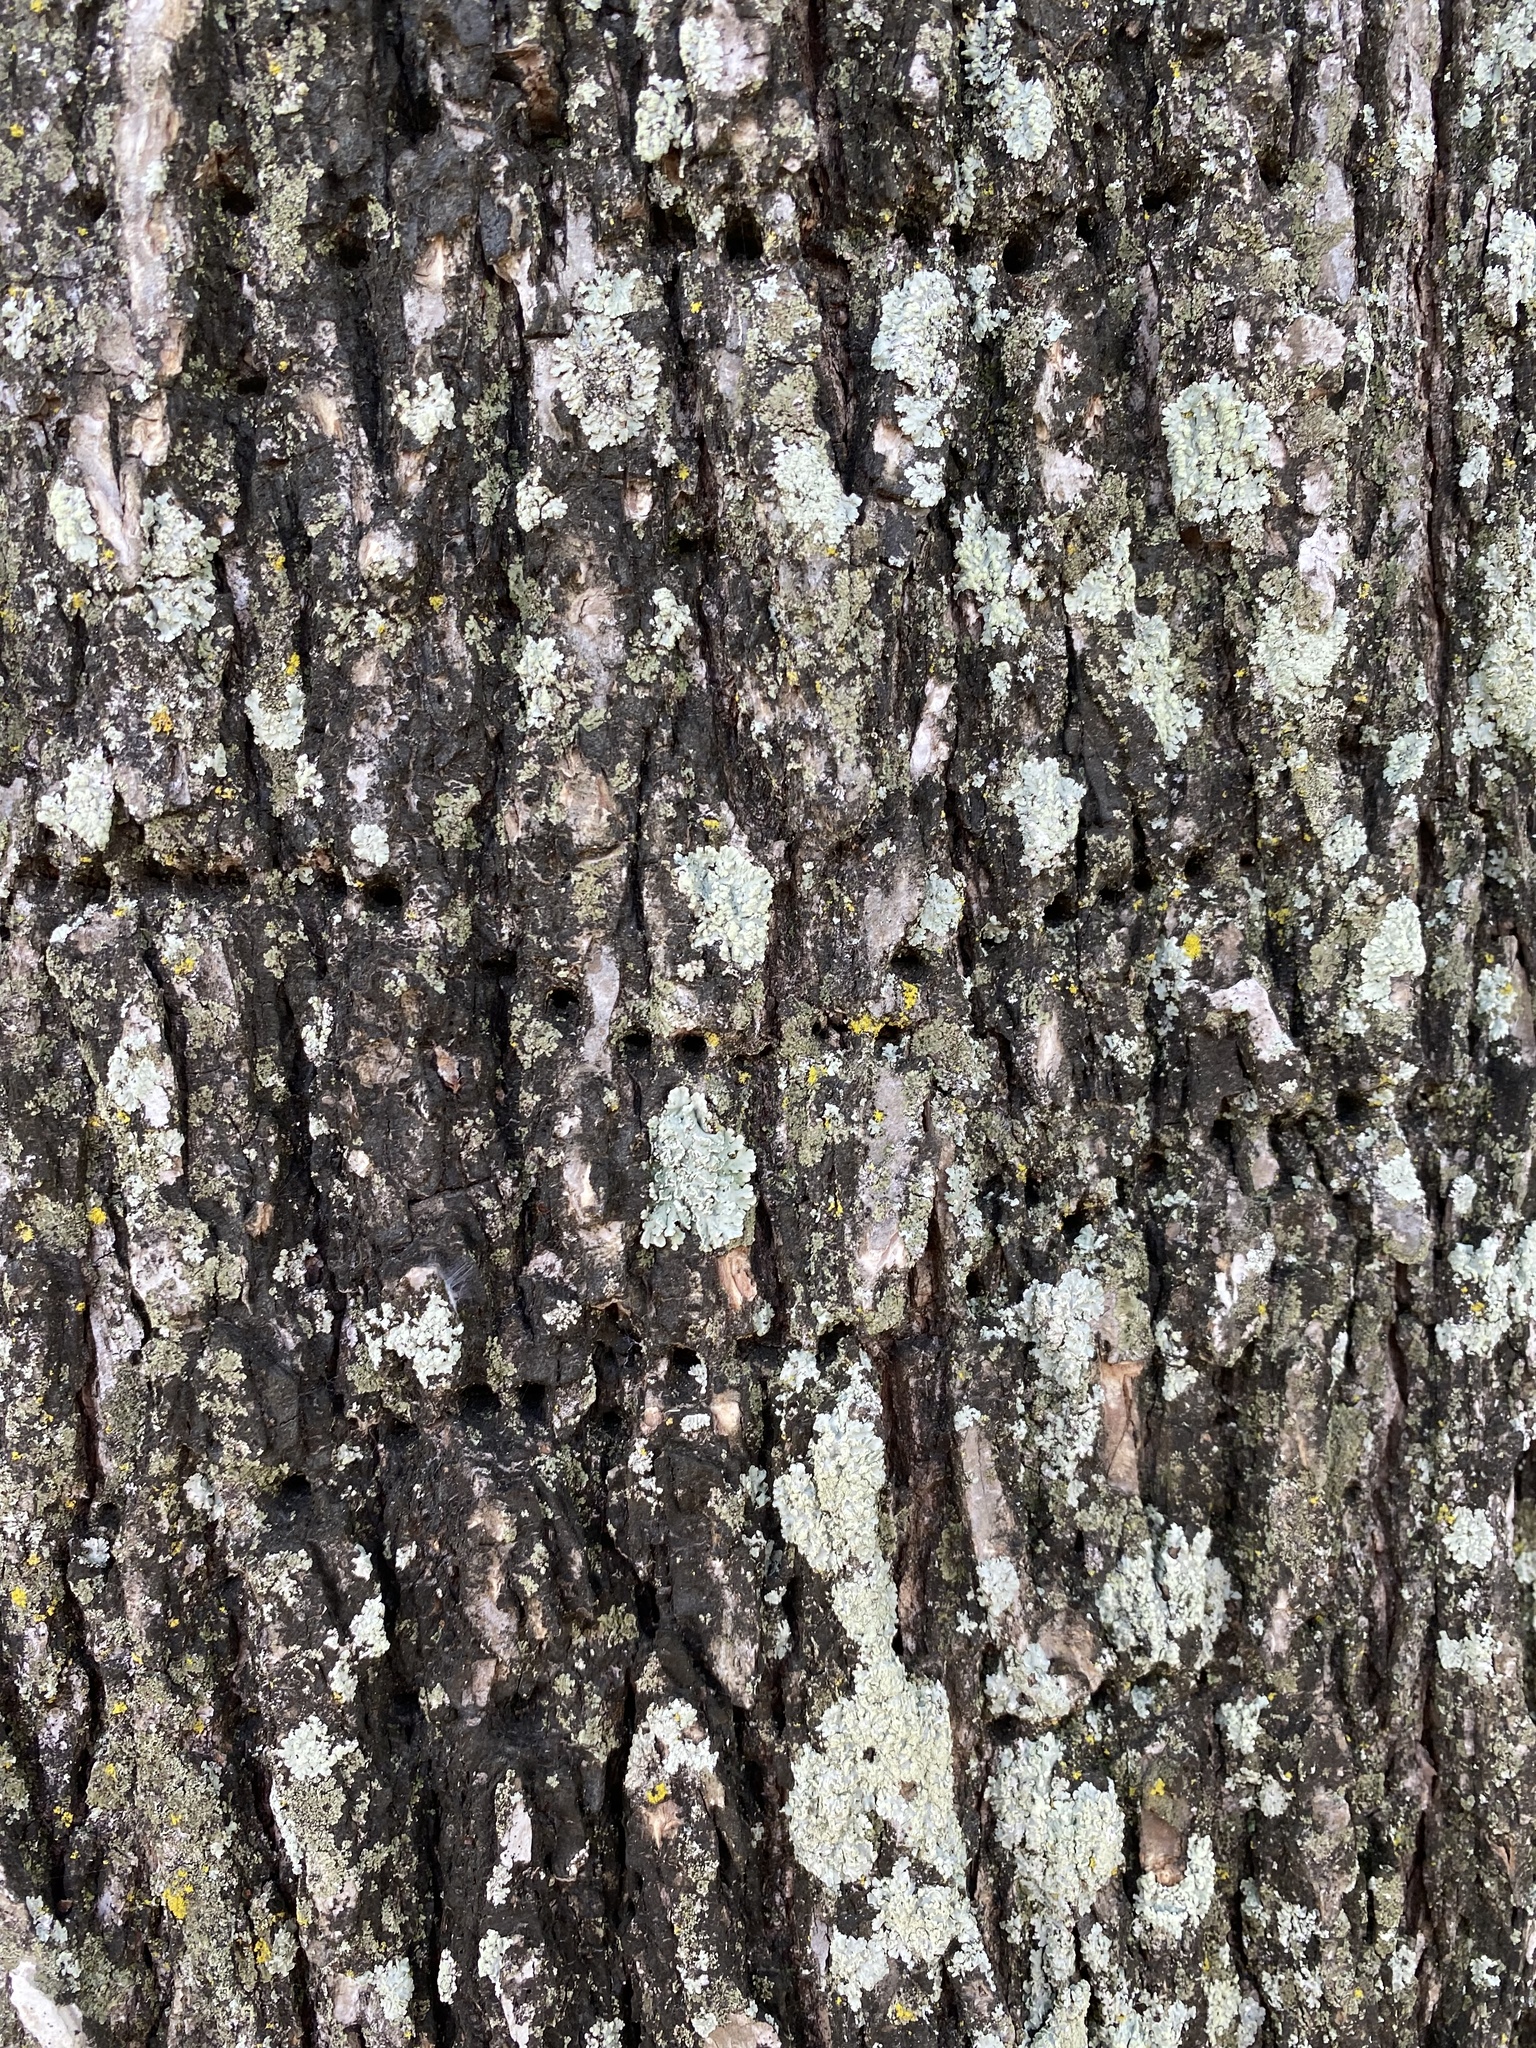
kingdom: Animalia
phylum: Chordata
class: Aves
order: Piciformes
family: Picidae
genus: Sphyrapicus
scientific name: Sphyrapicus varius
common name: Yellow-bellied sapsucker
